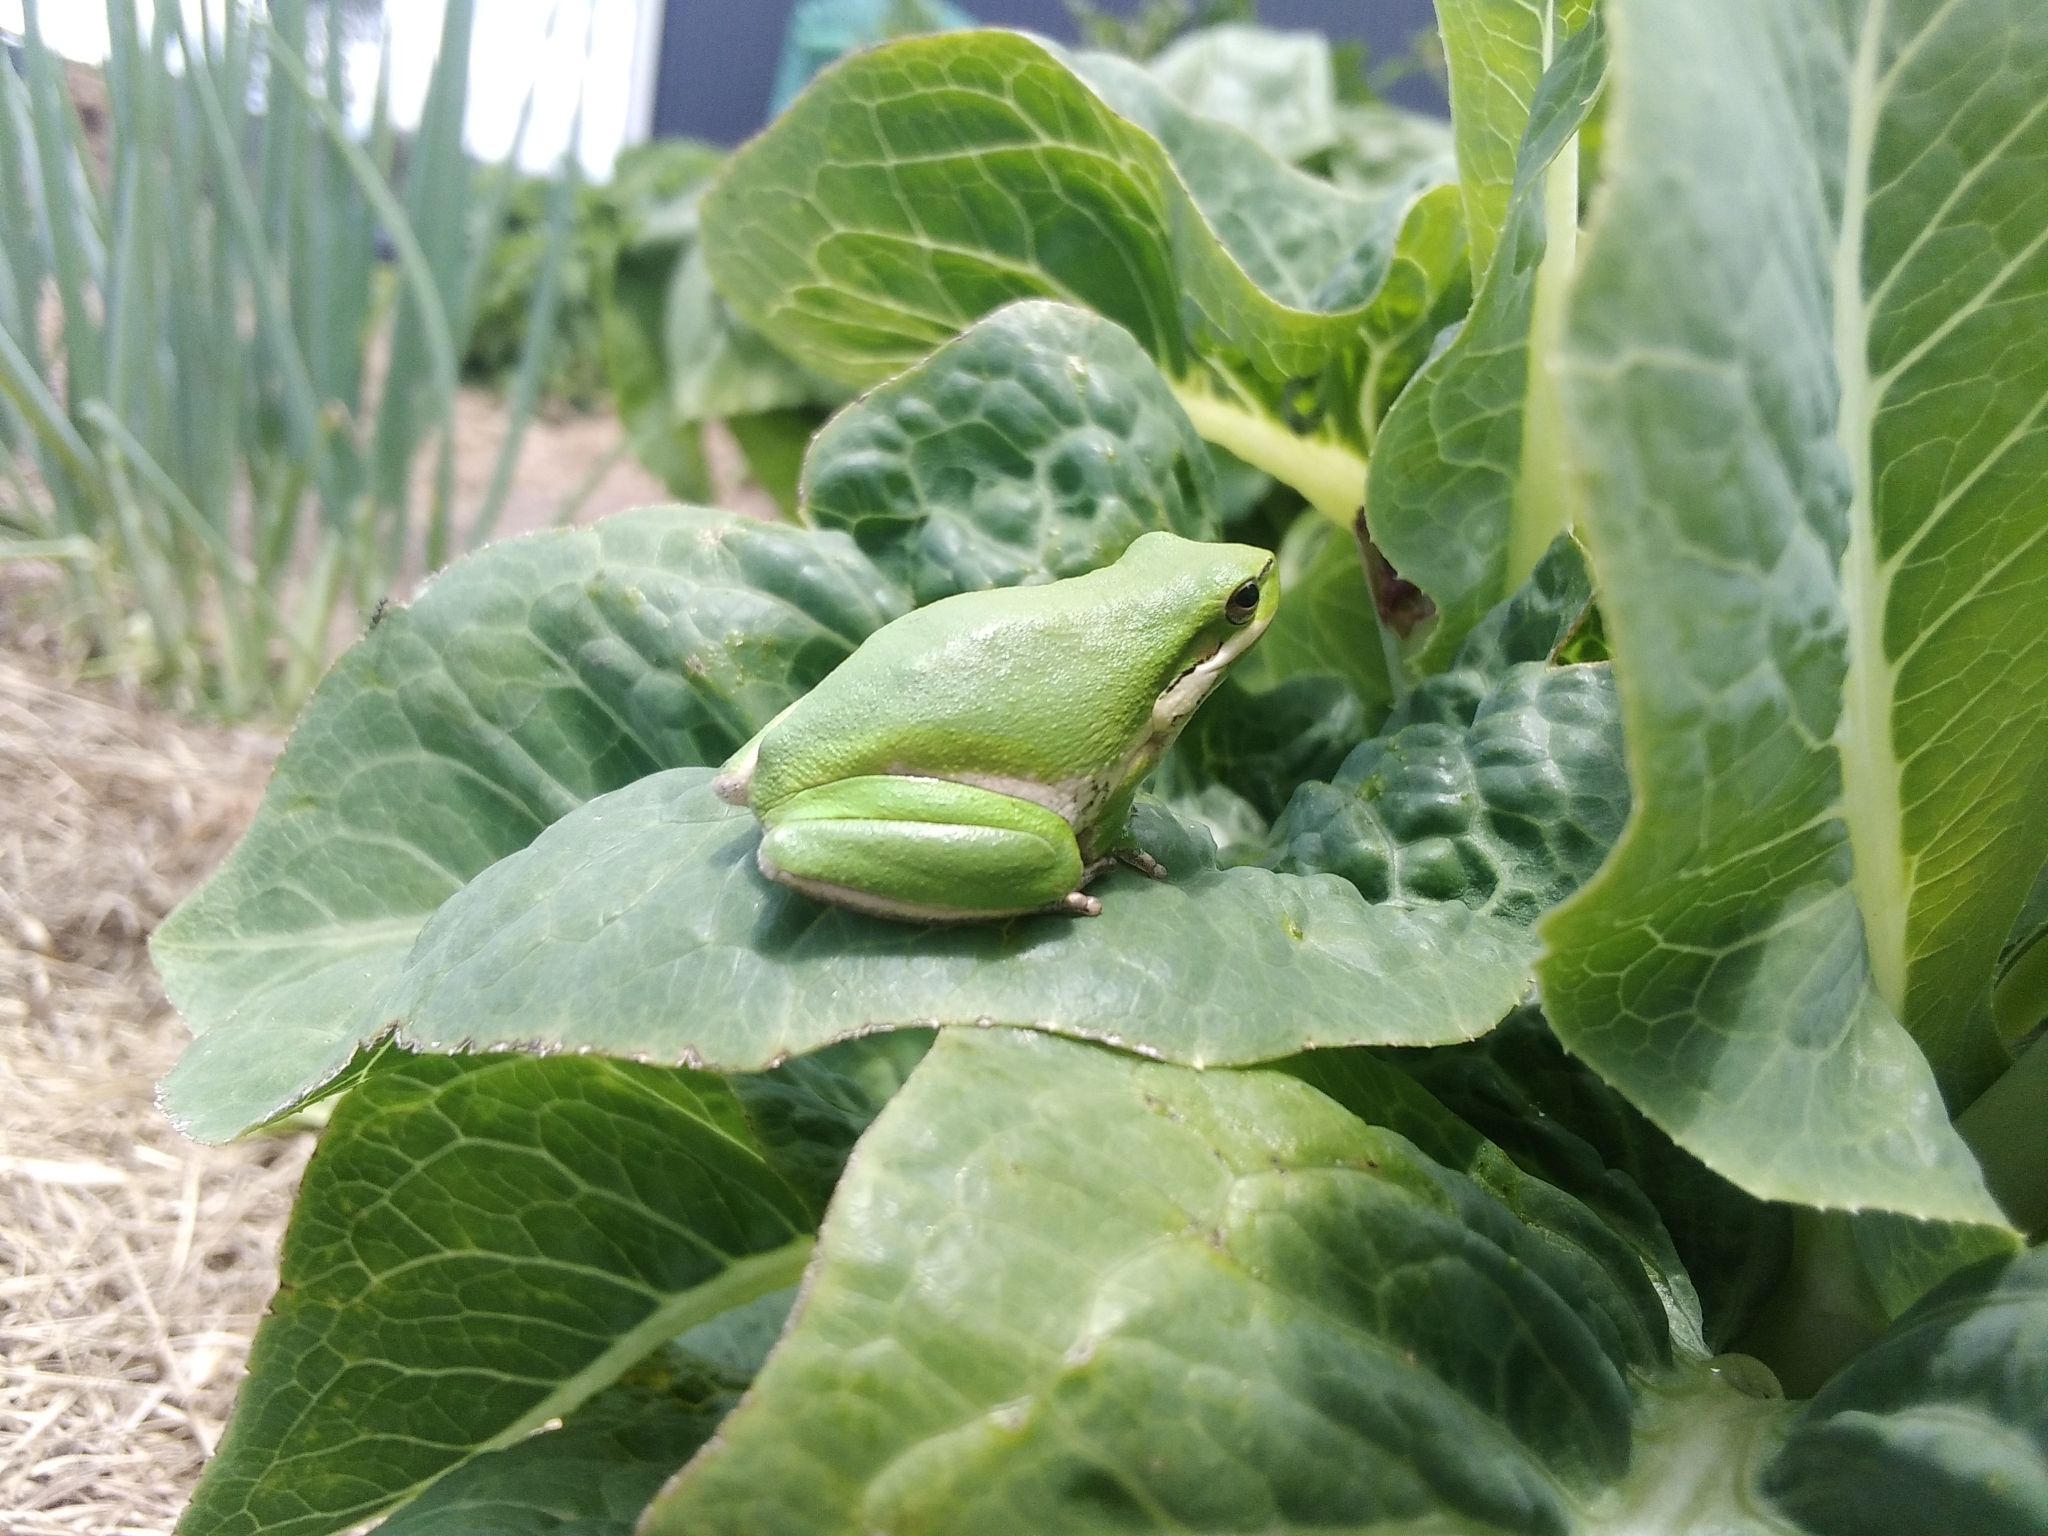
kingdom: Animalia
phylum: Chordata
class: Amphibia
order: Anura
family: Pelodryadidae
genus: Litoria
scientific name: Litoria fallax
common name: Eastern dwarf treefrog
